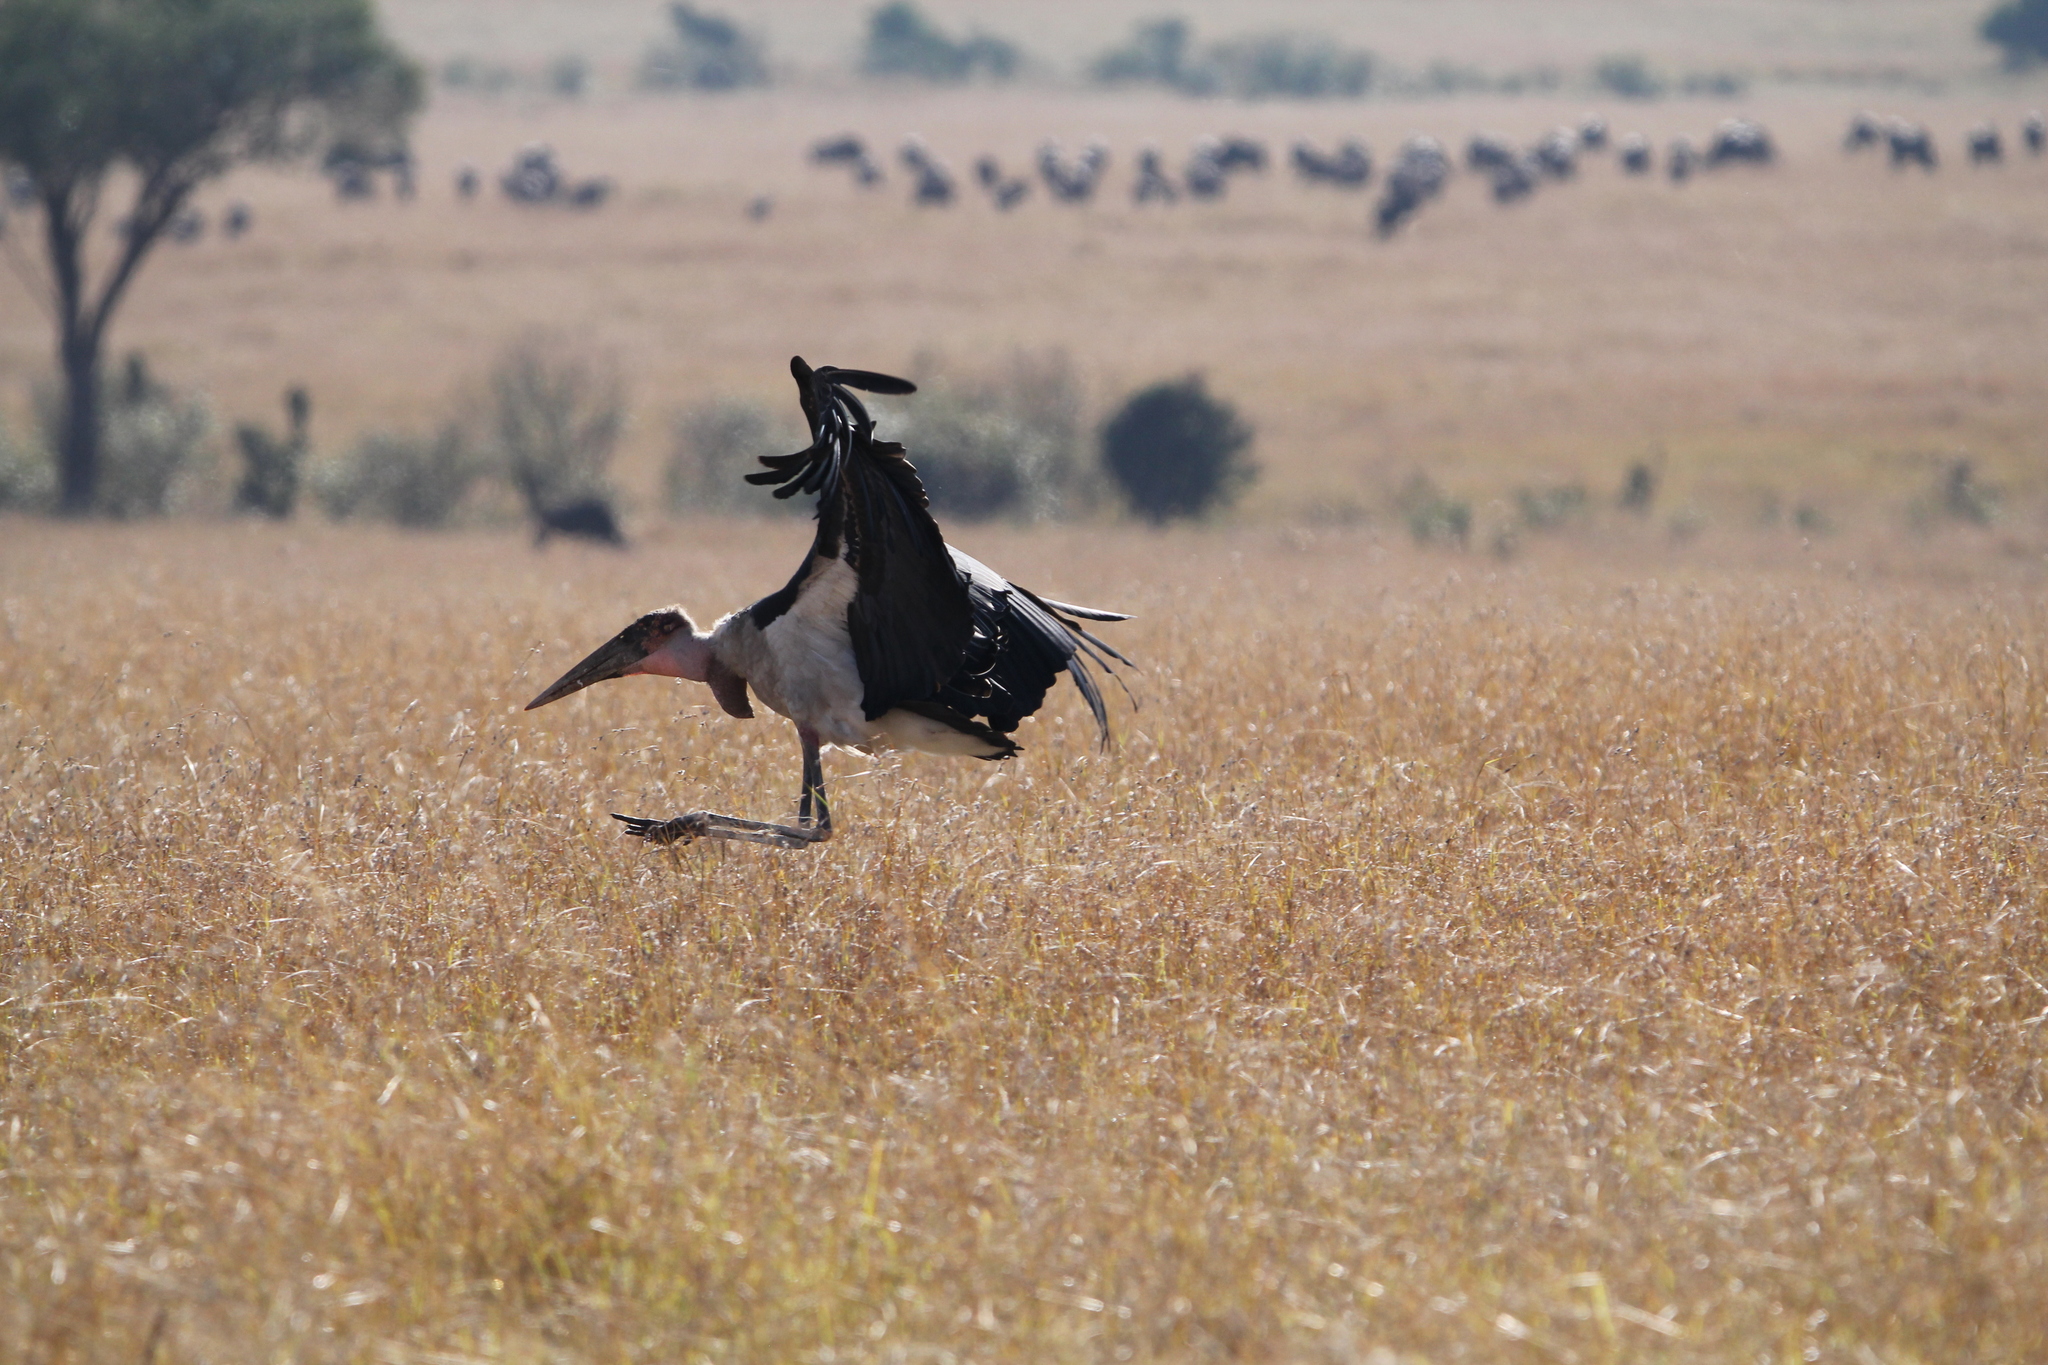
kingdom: Animalia
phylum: Chordata
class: Aves
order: Ciconiiformes
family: Ciconiidae
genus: Leptoptilos
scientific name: Leptoptilos crumenifer
